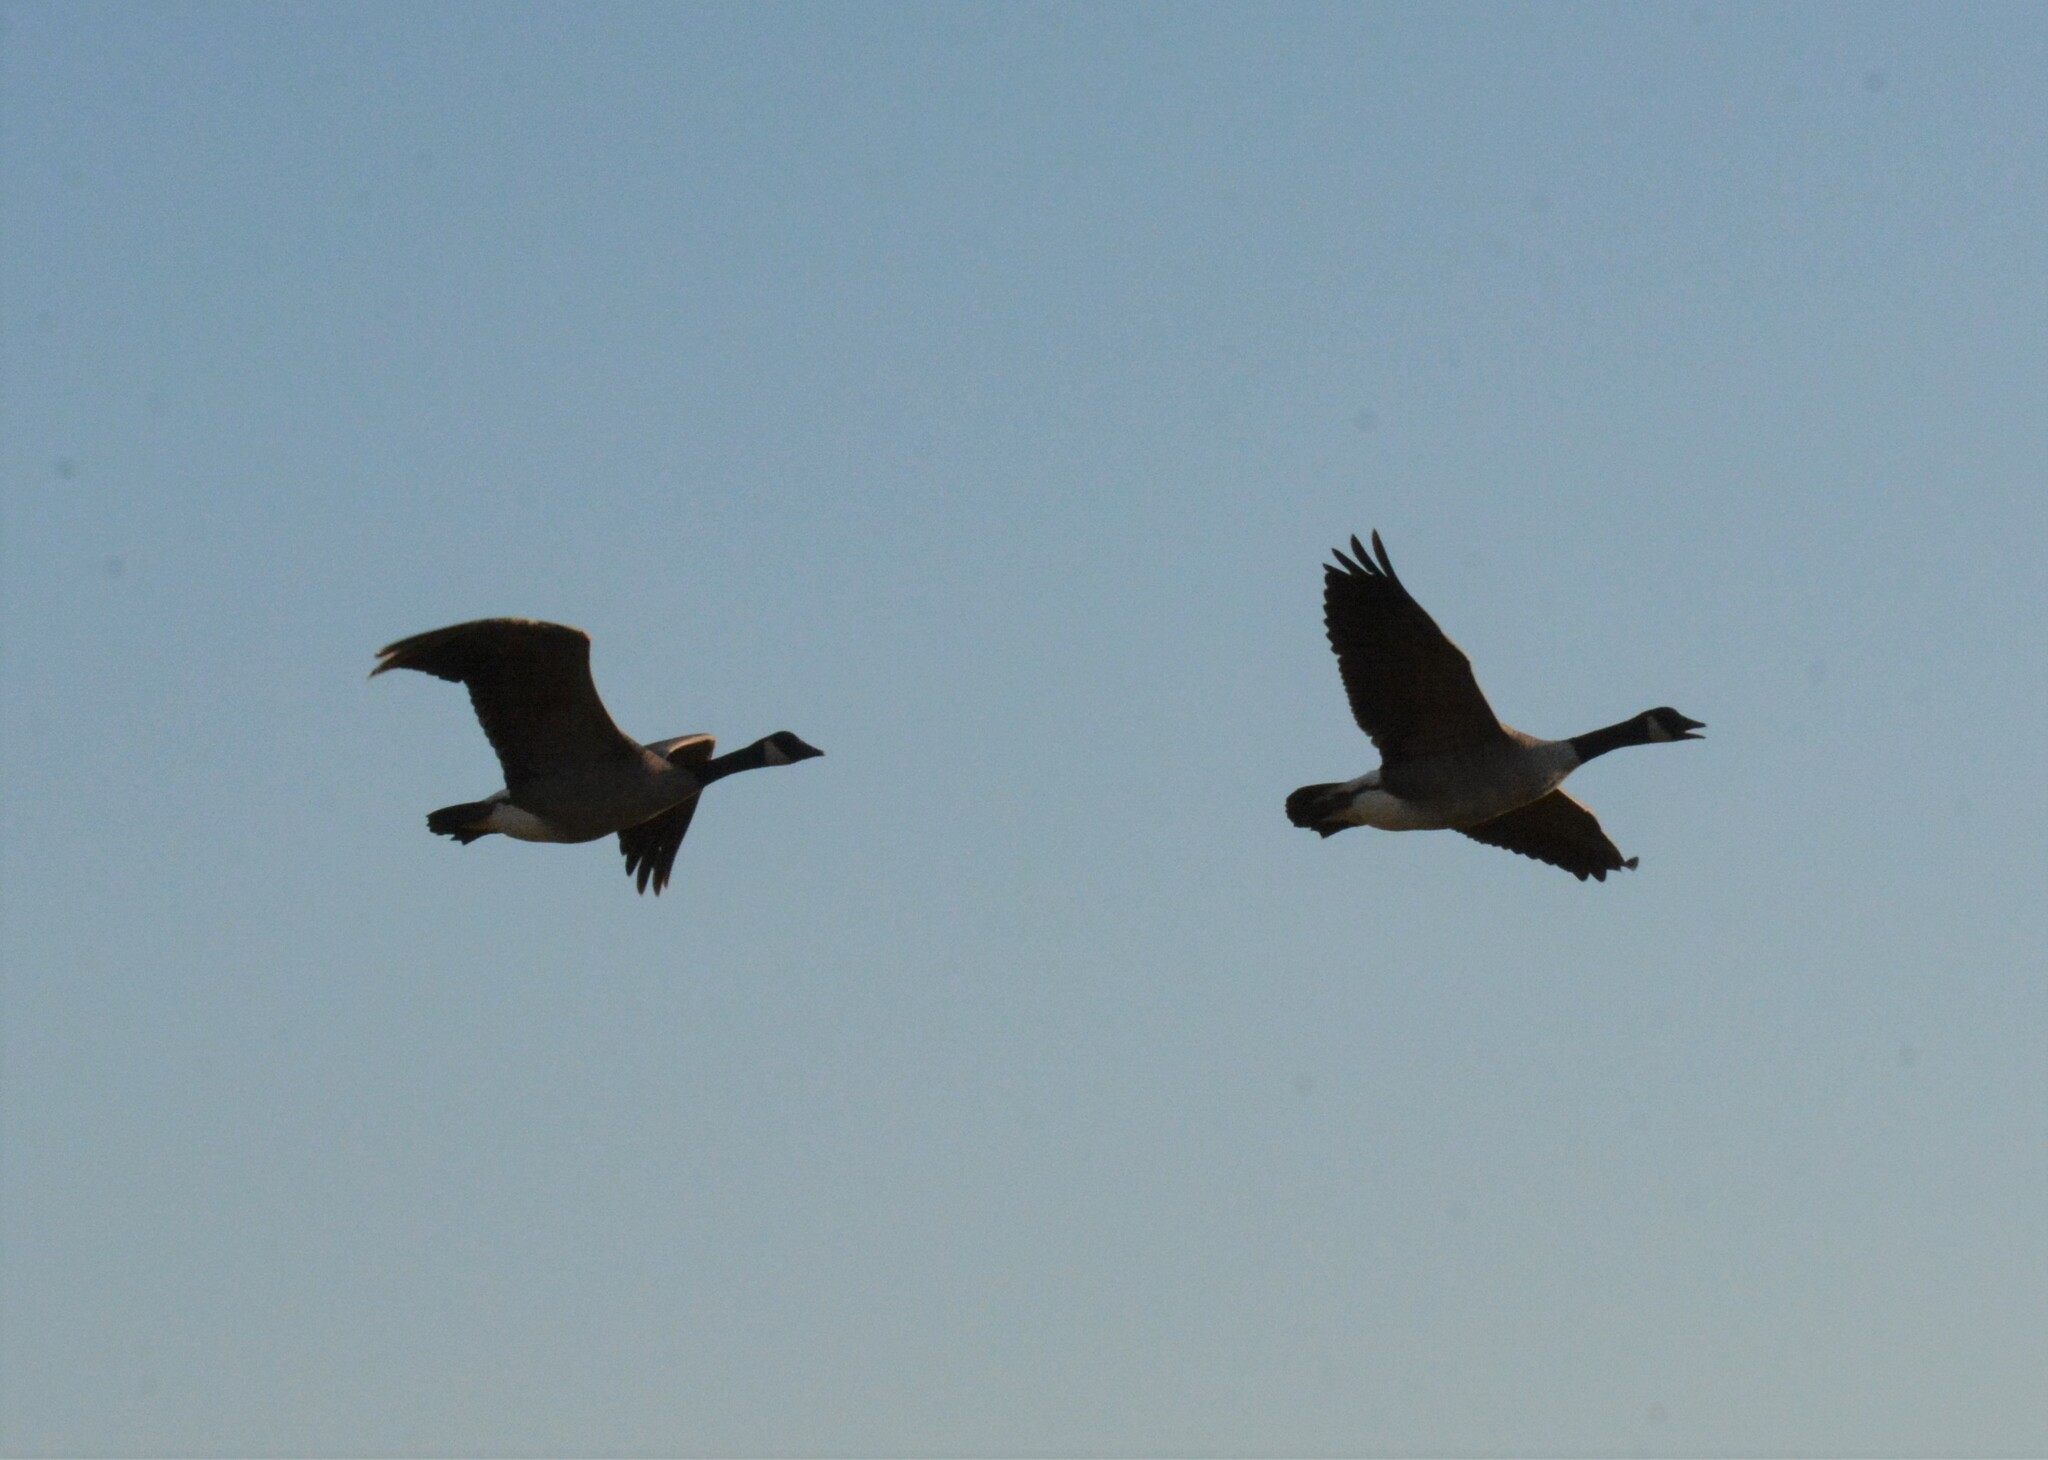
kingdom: Animalia
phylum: Chordata
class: Aves
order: Anseriformes
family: Anatidae
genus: Branta
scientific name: Branta canadensis
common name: Canada goose
